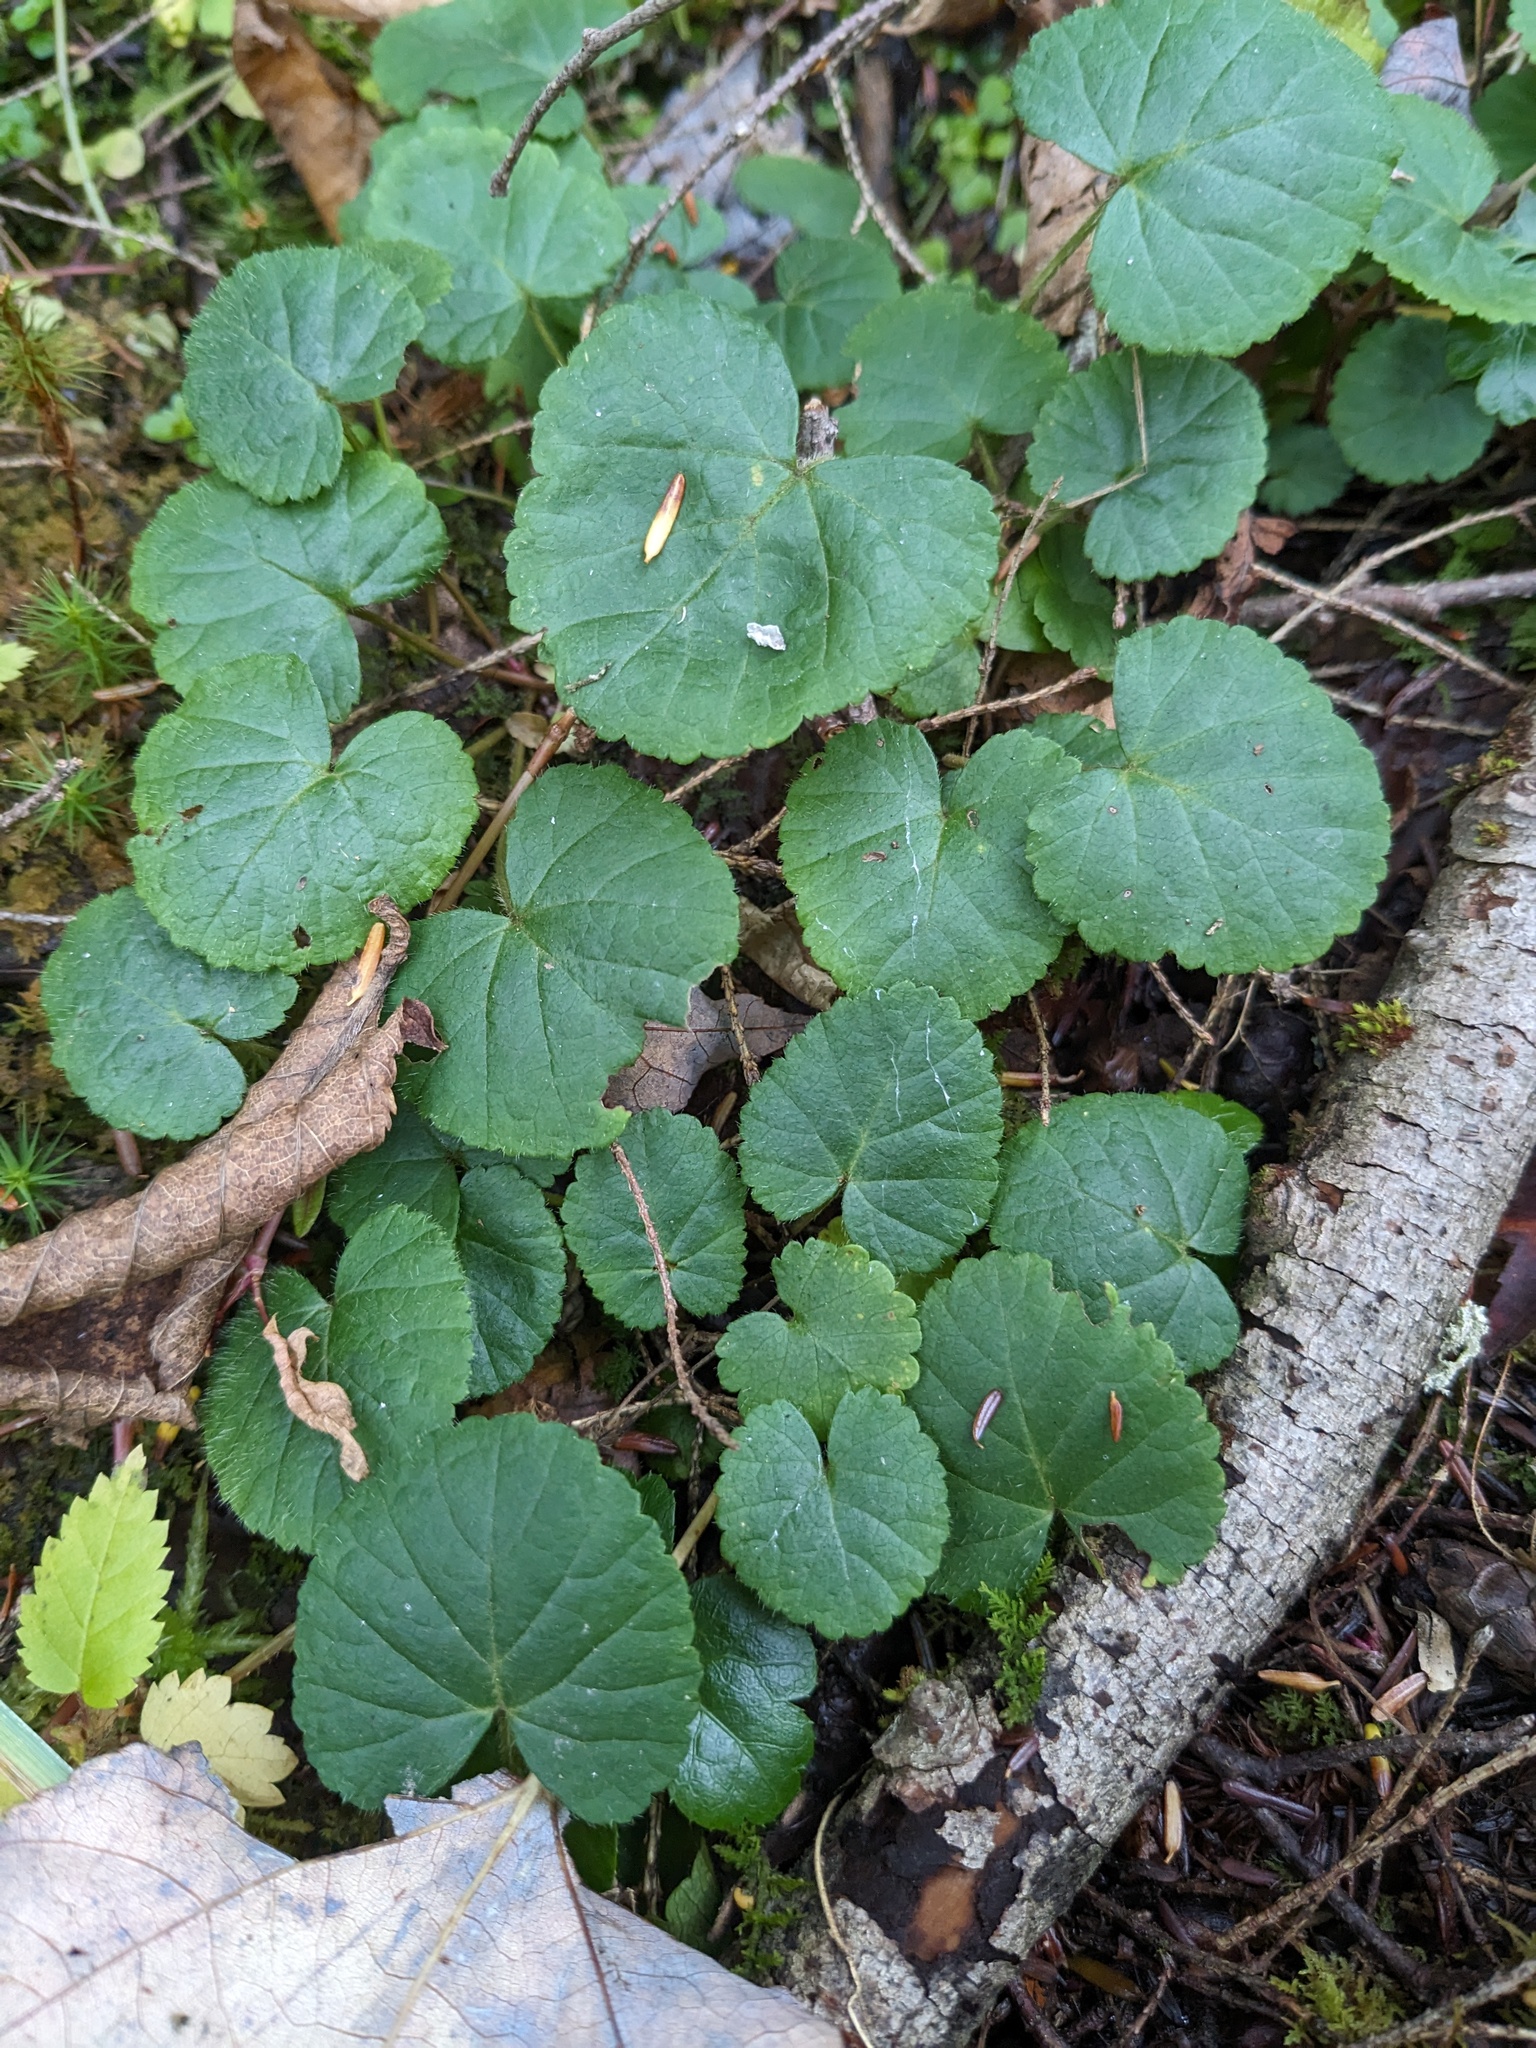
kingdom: Plantae
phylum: Tracheophyta
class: Magnoliopsida
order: Rosales
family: Rosaceae
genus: Dalibarda
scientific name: Dalibarda repens
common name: Dewdrop
